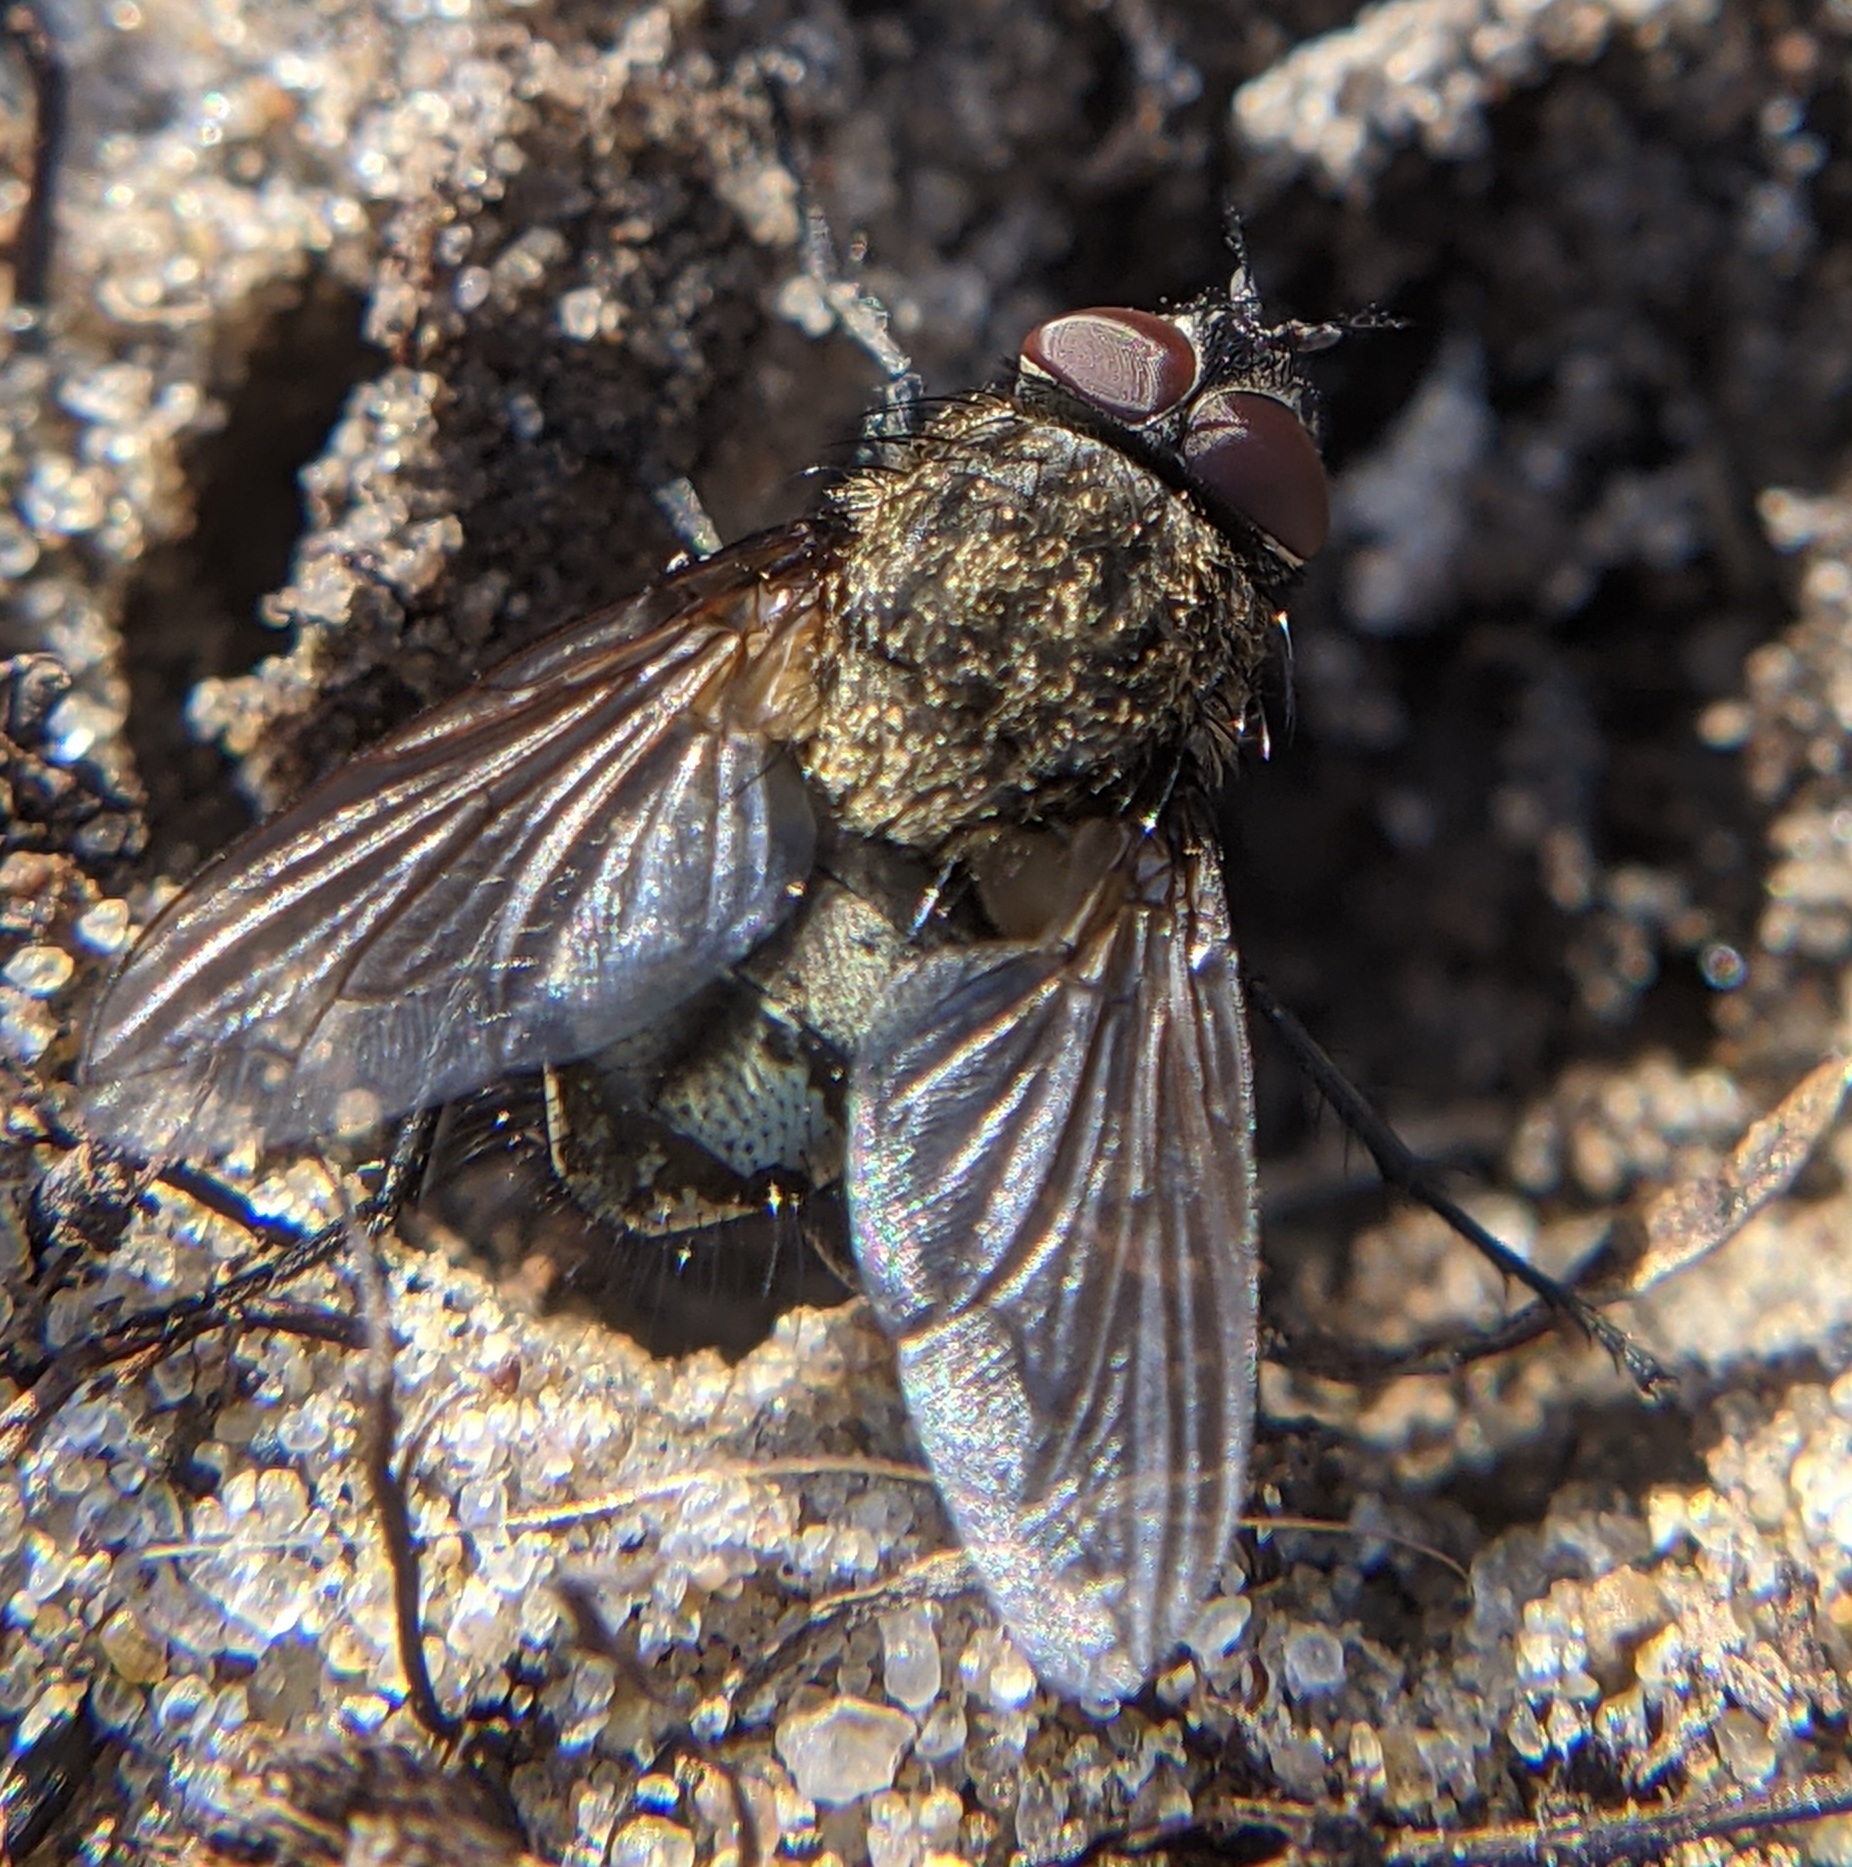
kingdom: Animalia
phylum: Arthropoda
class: Insecta
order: Diptera
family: Polleniidae
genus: Pollenia
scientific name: Pollenia
